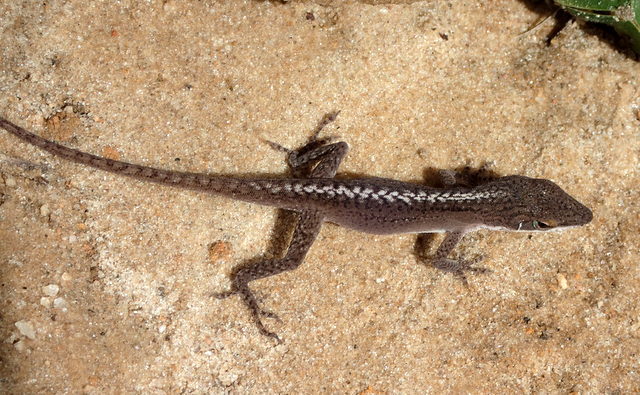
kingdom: Animalia
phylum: Chordata
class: Squamata
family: Dactyloidae
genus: Anolis
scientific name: Anolis carolinensis
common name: Green anole
